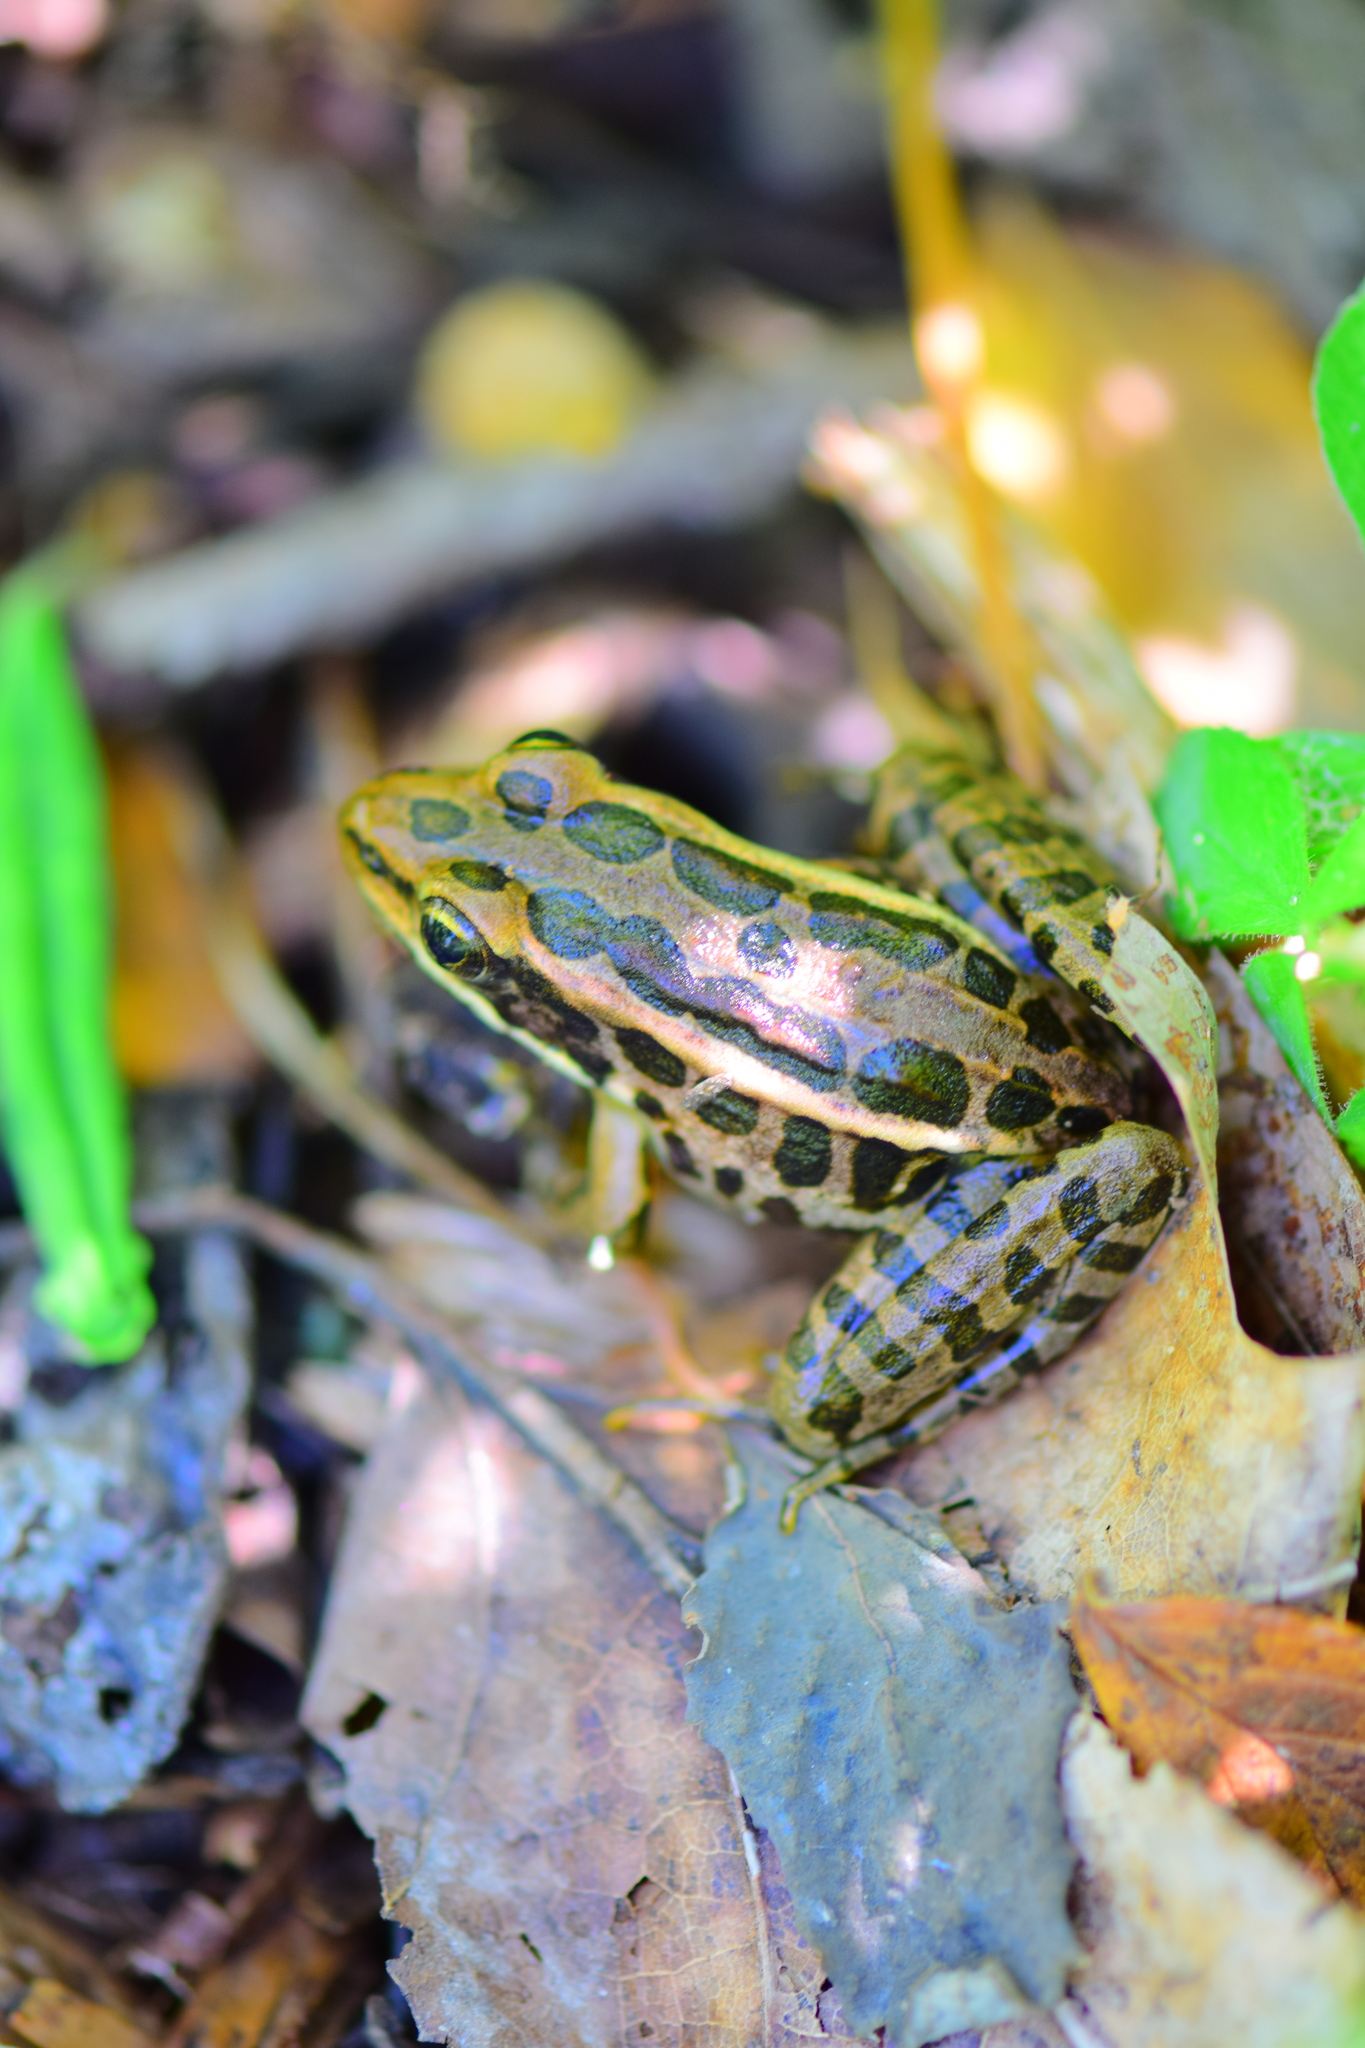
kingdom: Animalia
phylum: Chordata
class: Amphibia
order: Anura
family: Ranidae
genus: Lithobates
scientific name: Lithobates palustris
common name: Pickerel frog
